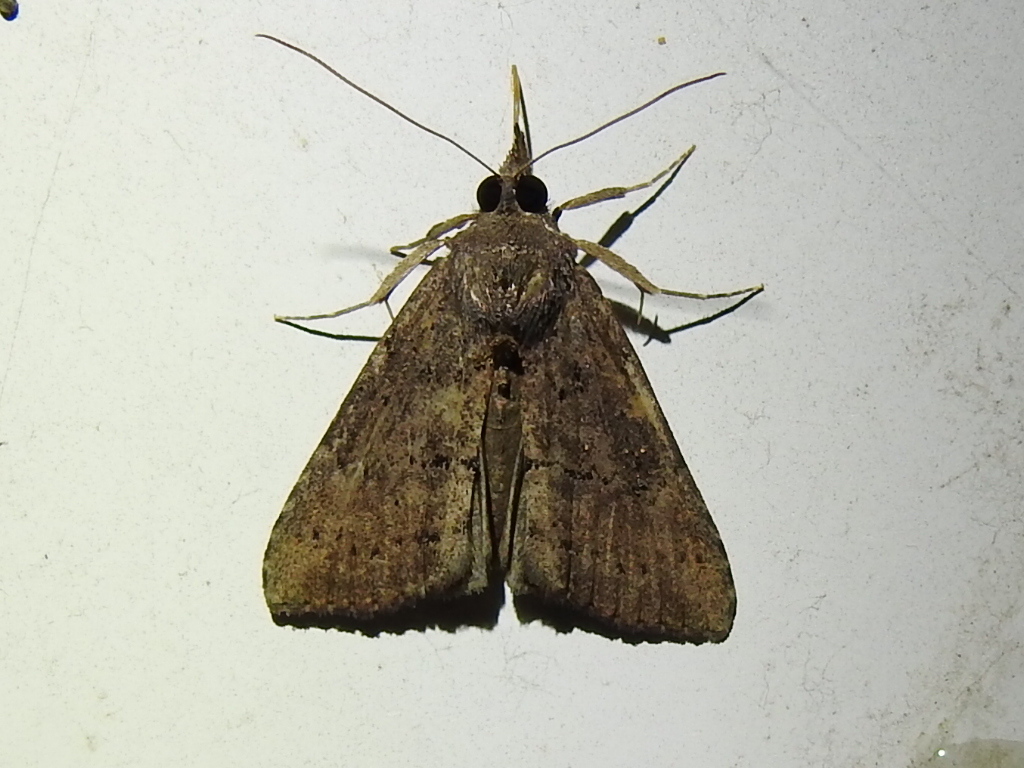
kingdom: Animalia
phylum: Arthropoda
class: Insecta
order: Lepidoptera
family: Erebidae
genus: Hypena
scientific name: Hypena scabra
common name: Green cloverworm
